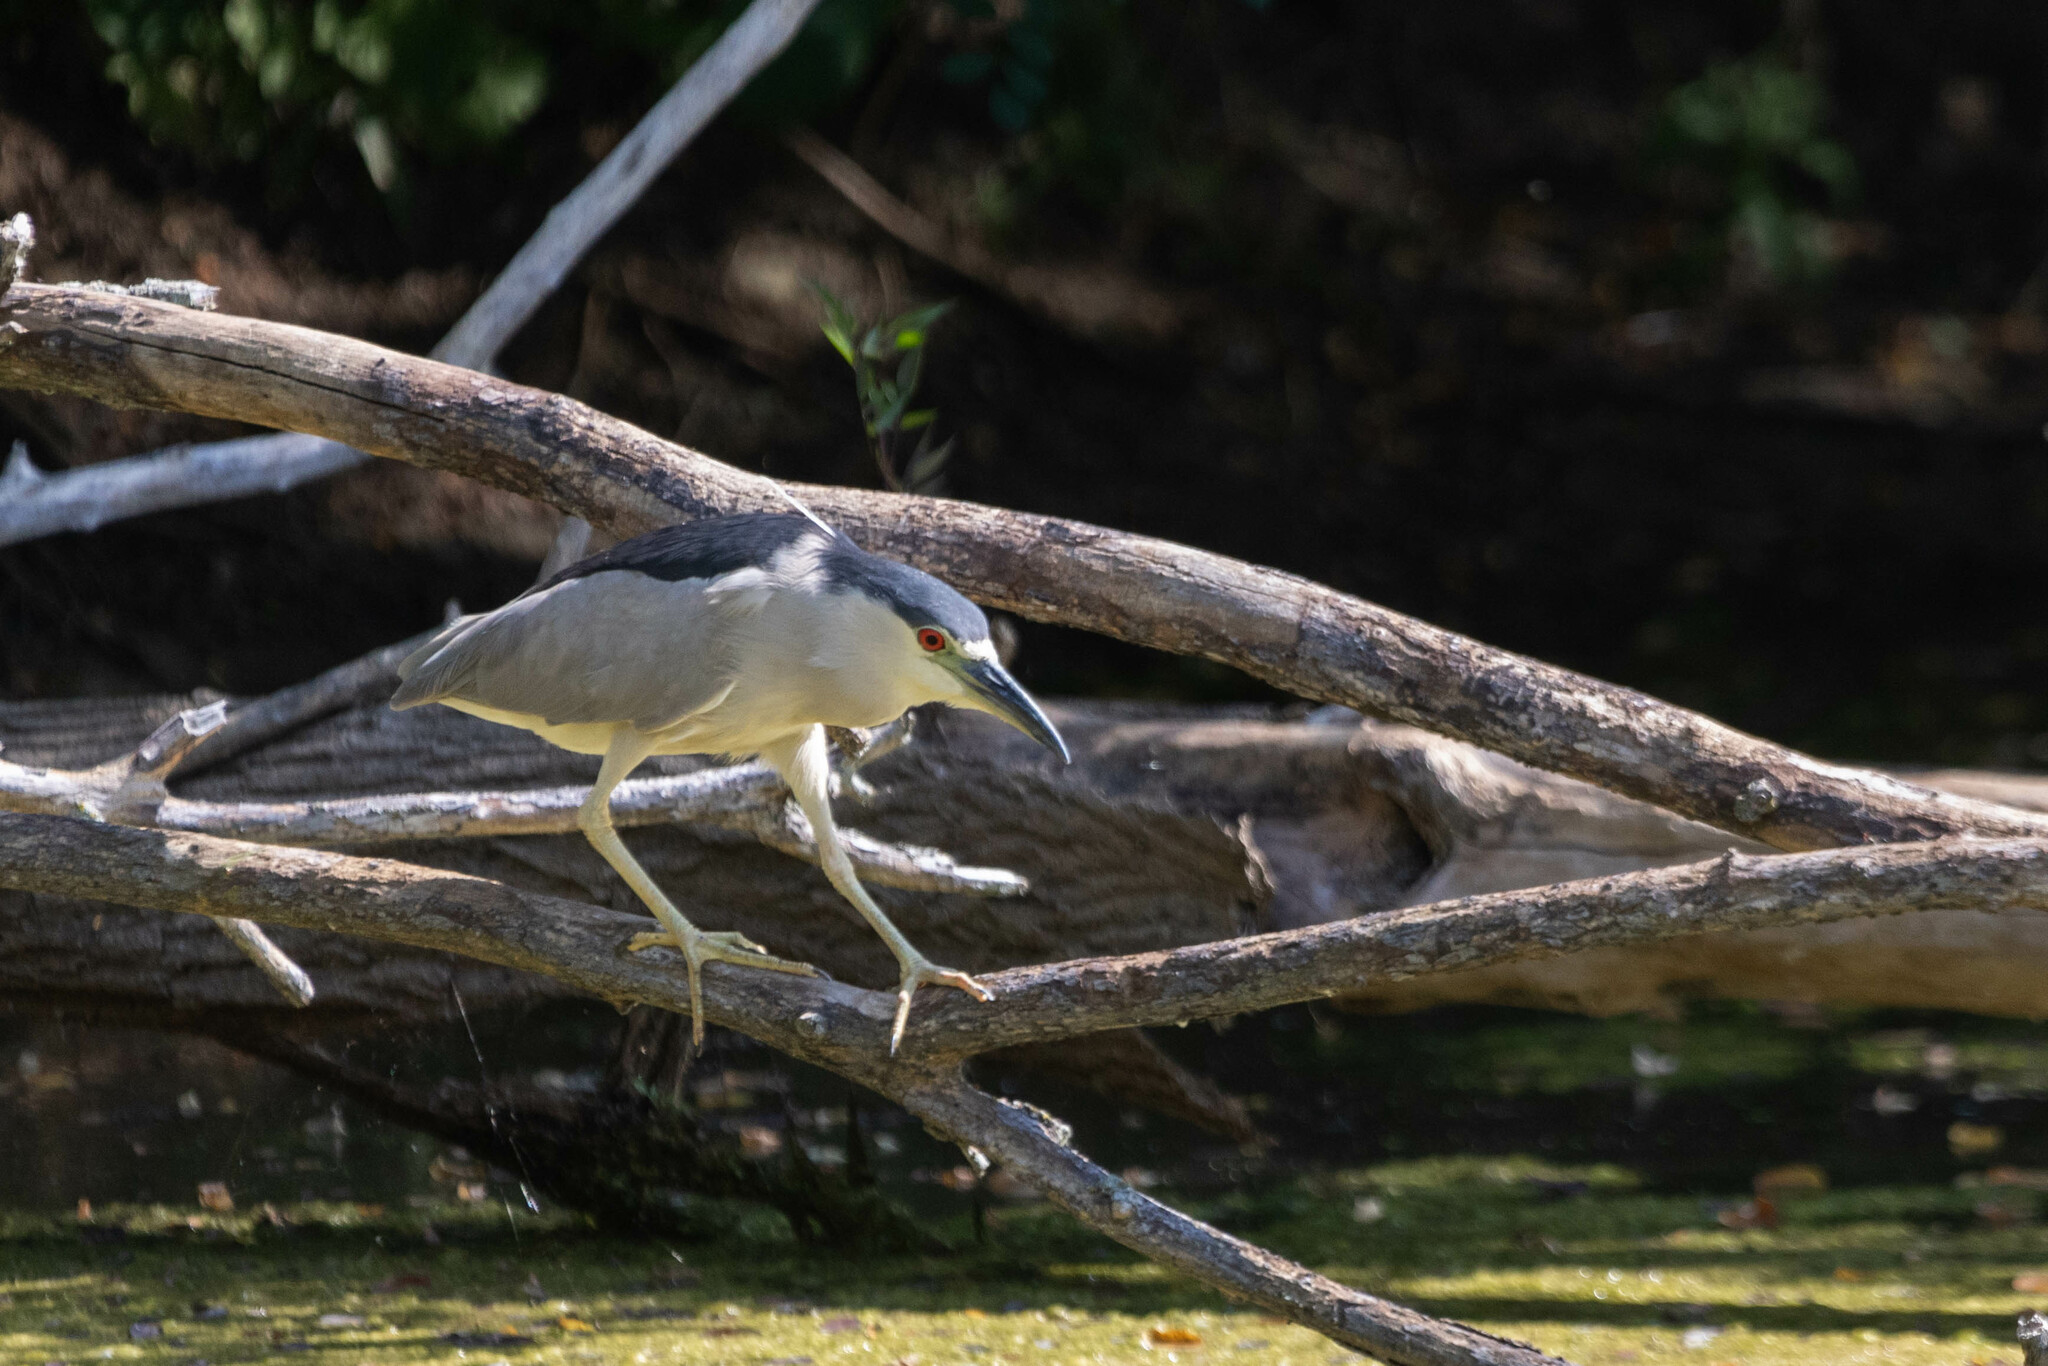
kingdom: Animalia
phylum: Chordata
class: Aves
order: Pelecaniformes
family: Ardeidae
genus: Nycticorax
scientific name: Nycticorax nycticorax
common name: Black-crowned night heron
